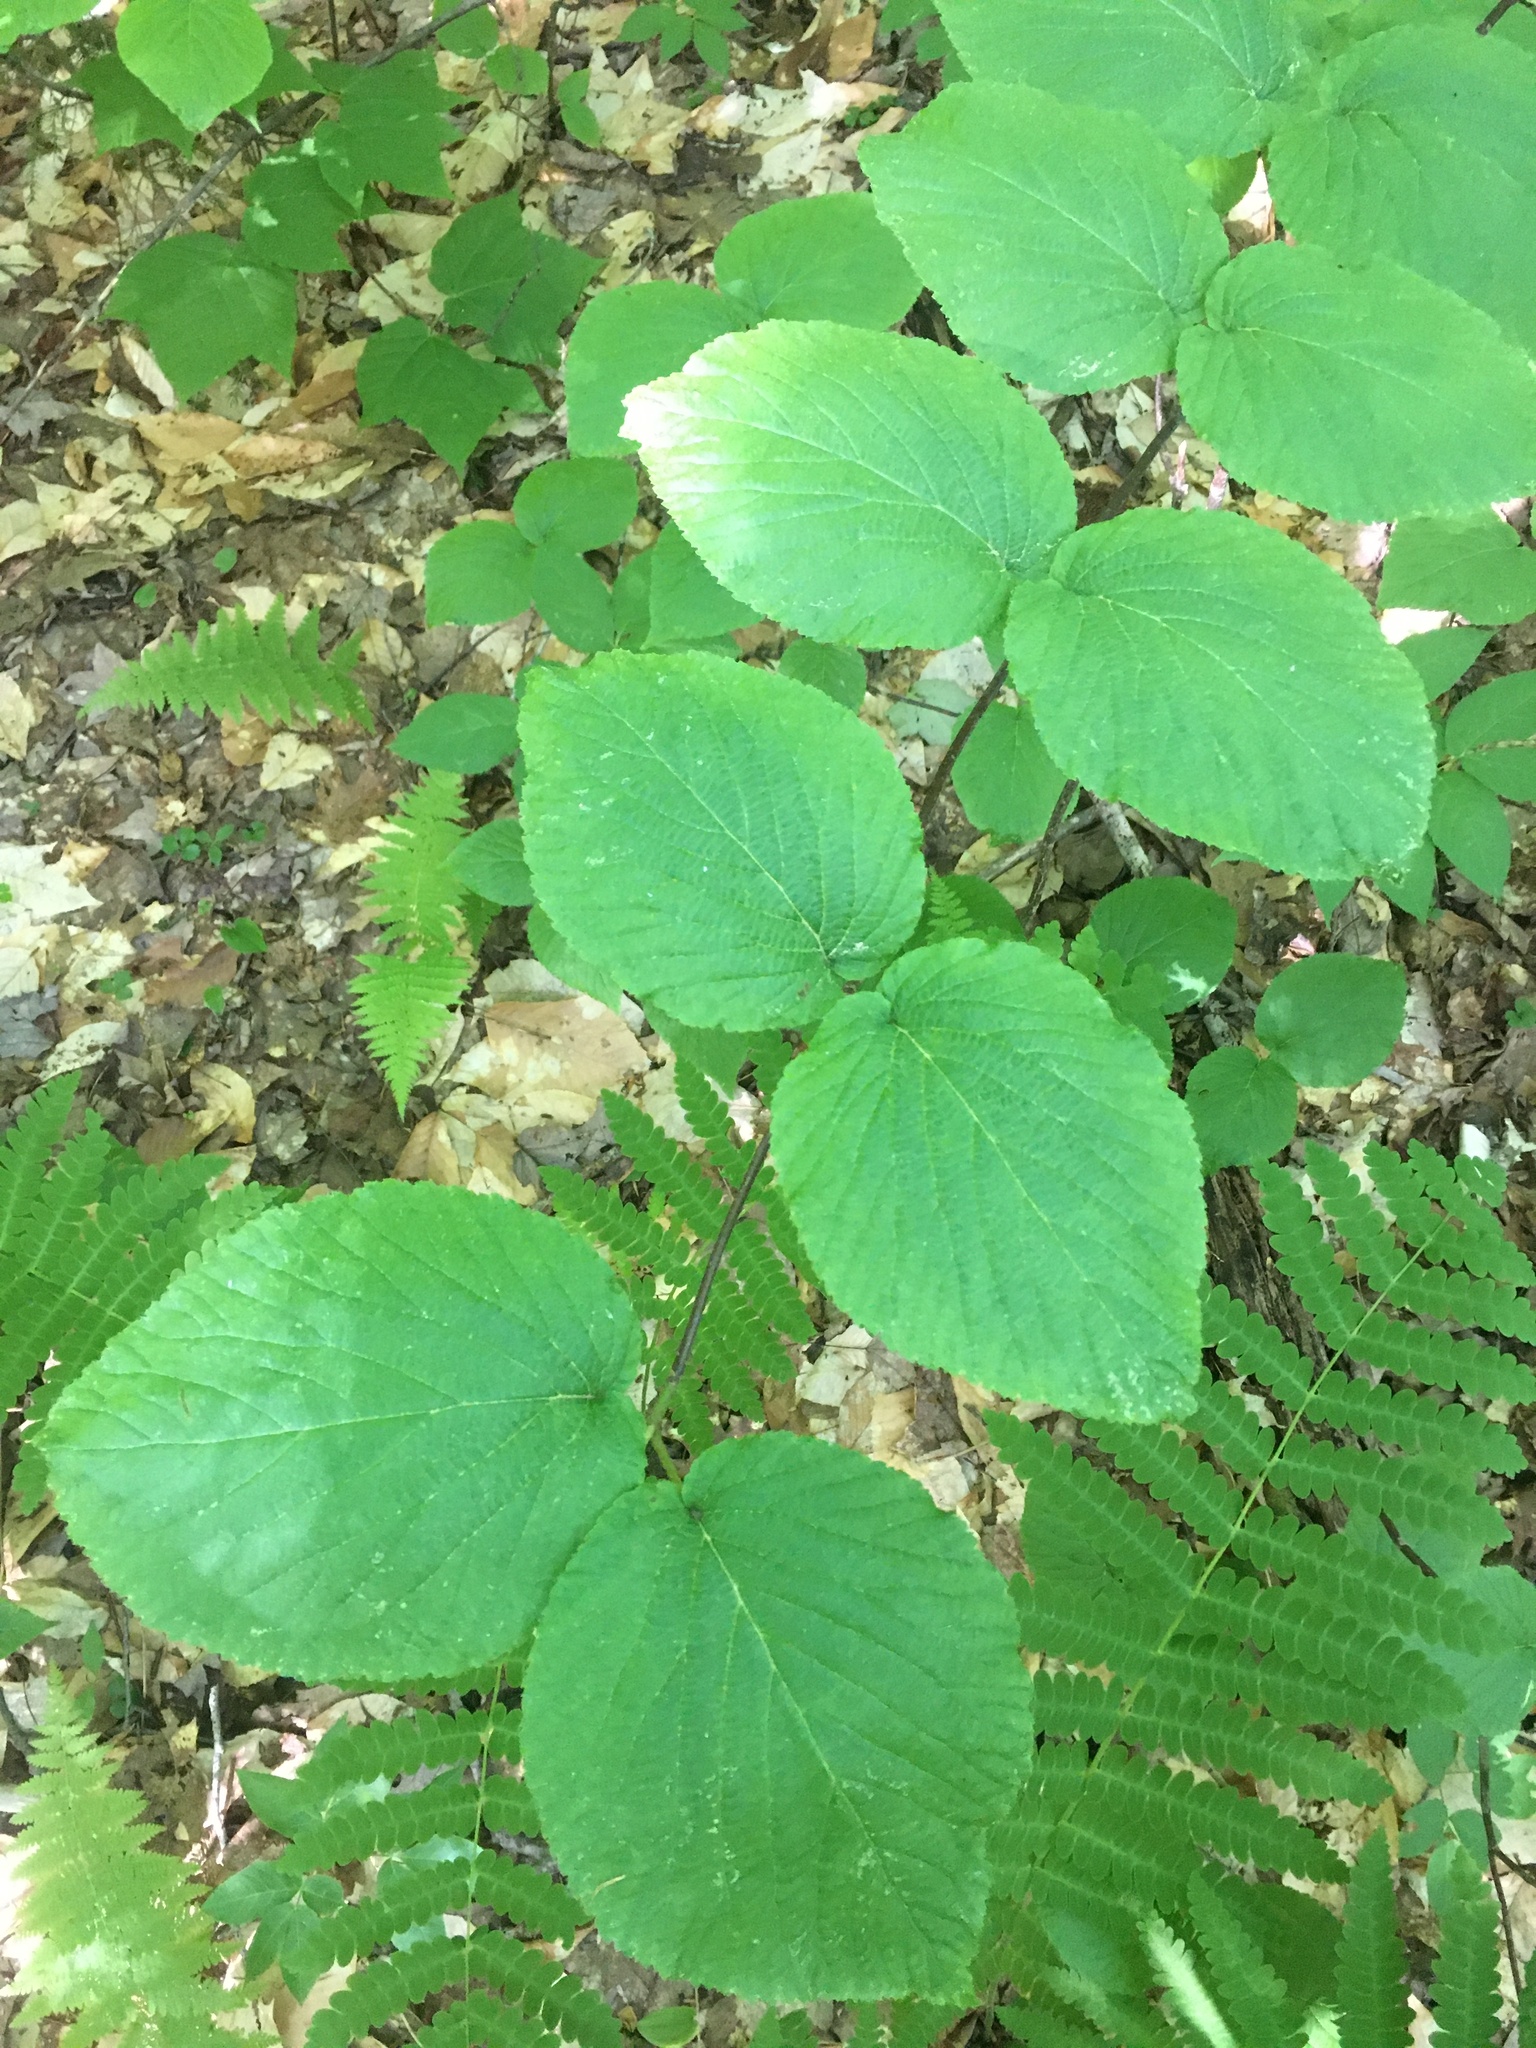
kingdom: Plantae
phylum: Tracheophyta
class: Magnoliopsida
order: Dipsacales
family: Viburnaceae
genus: Viburnum
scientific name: Viburnum lantanoides
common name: Hobblebush
